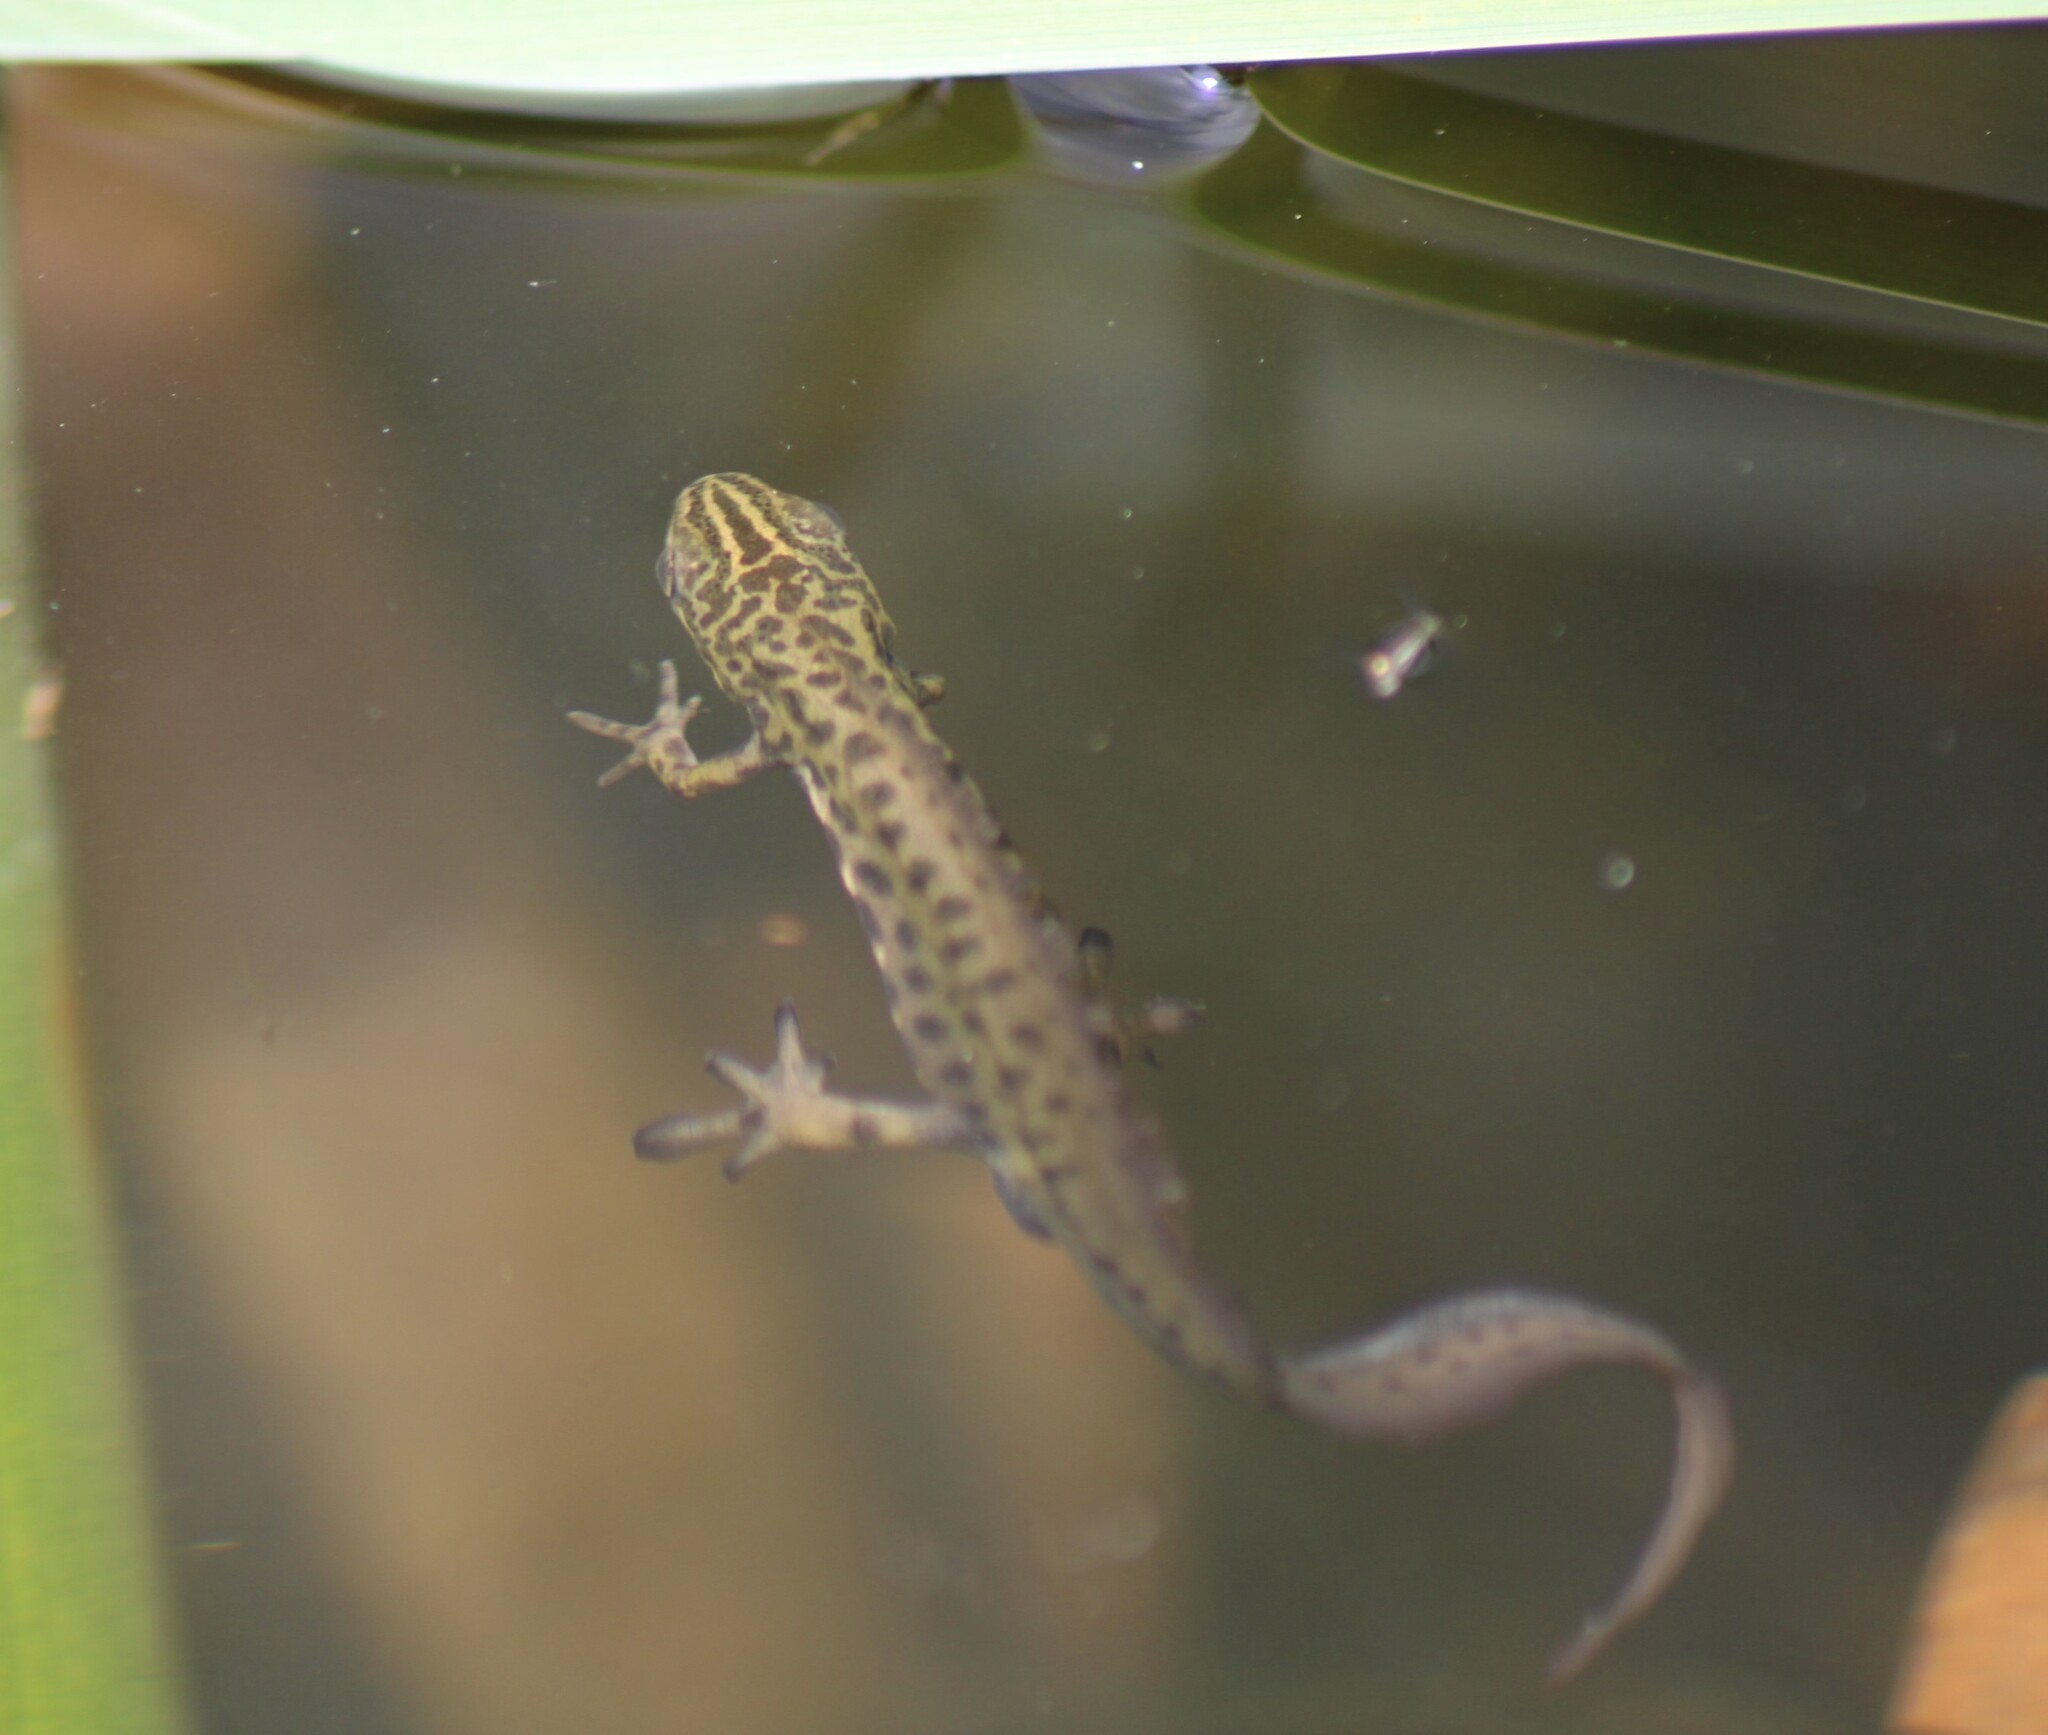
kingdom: Animalia
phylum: Chordata
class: Amphibia
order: Caudata
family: Salamandridae
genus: Lissotriton
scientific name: Lissotriton vulgaris
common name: Smooth newt
